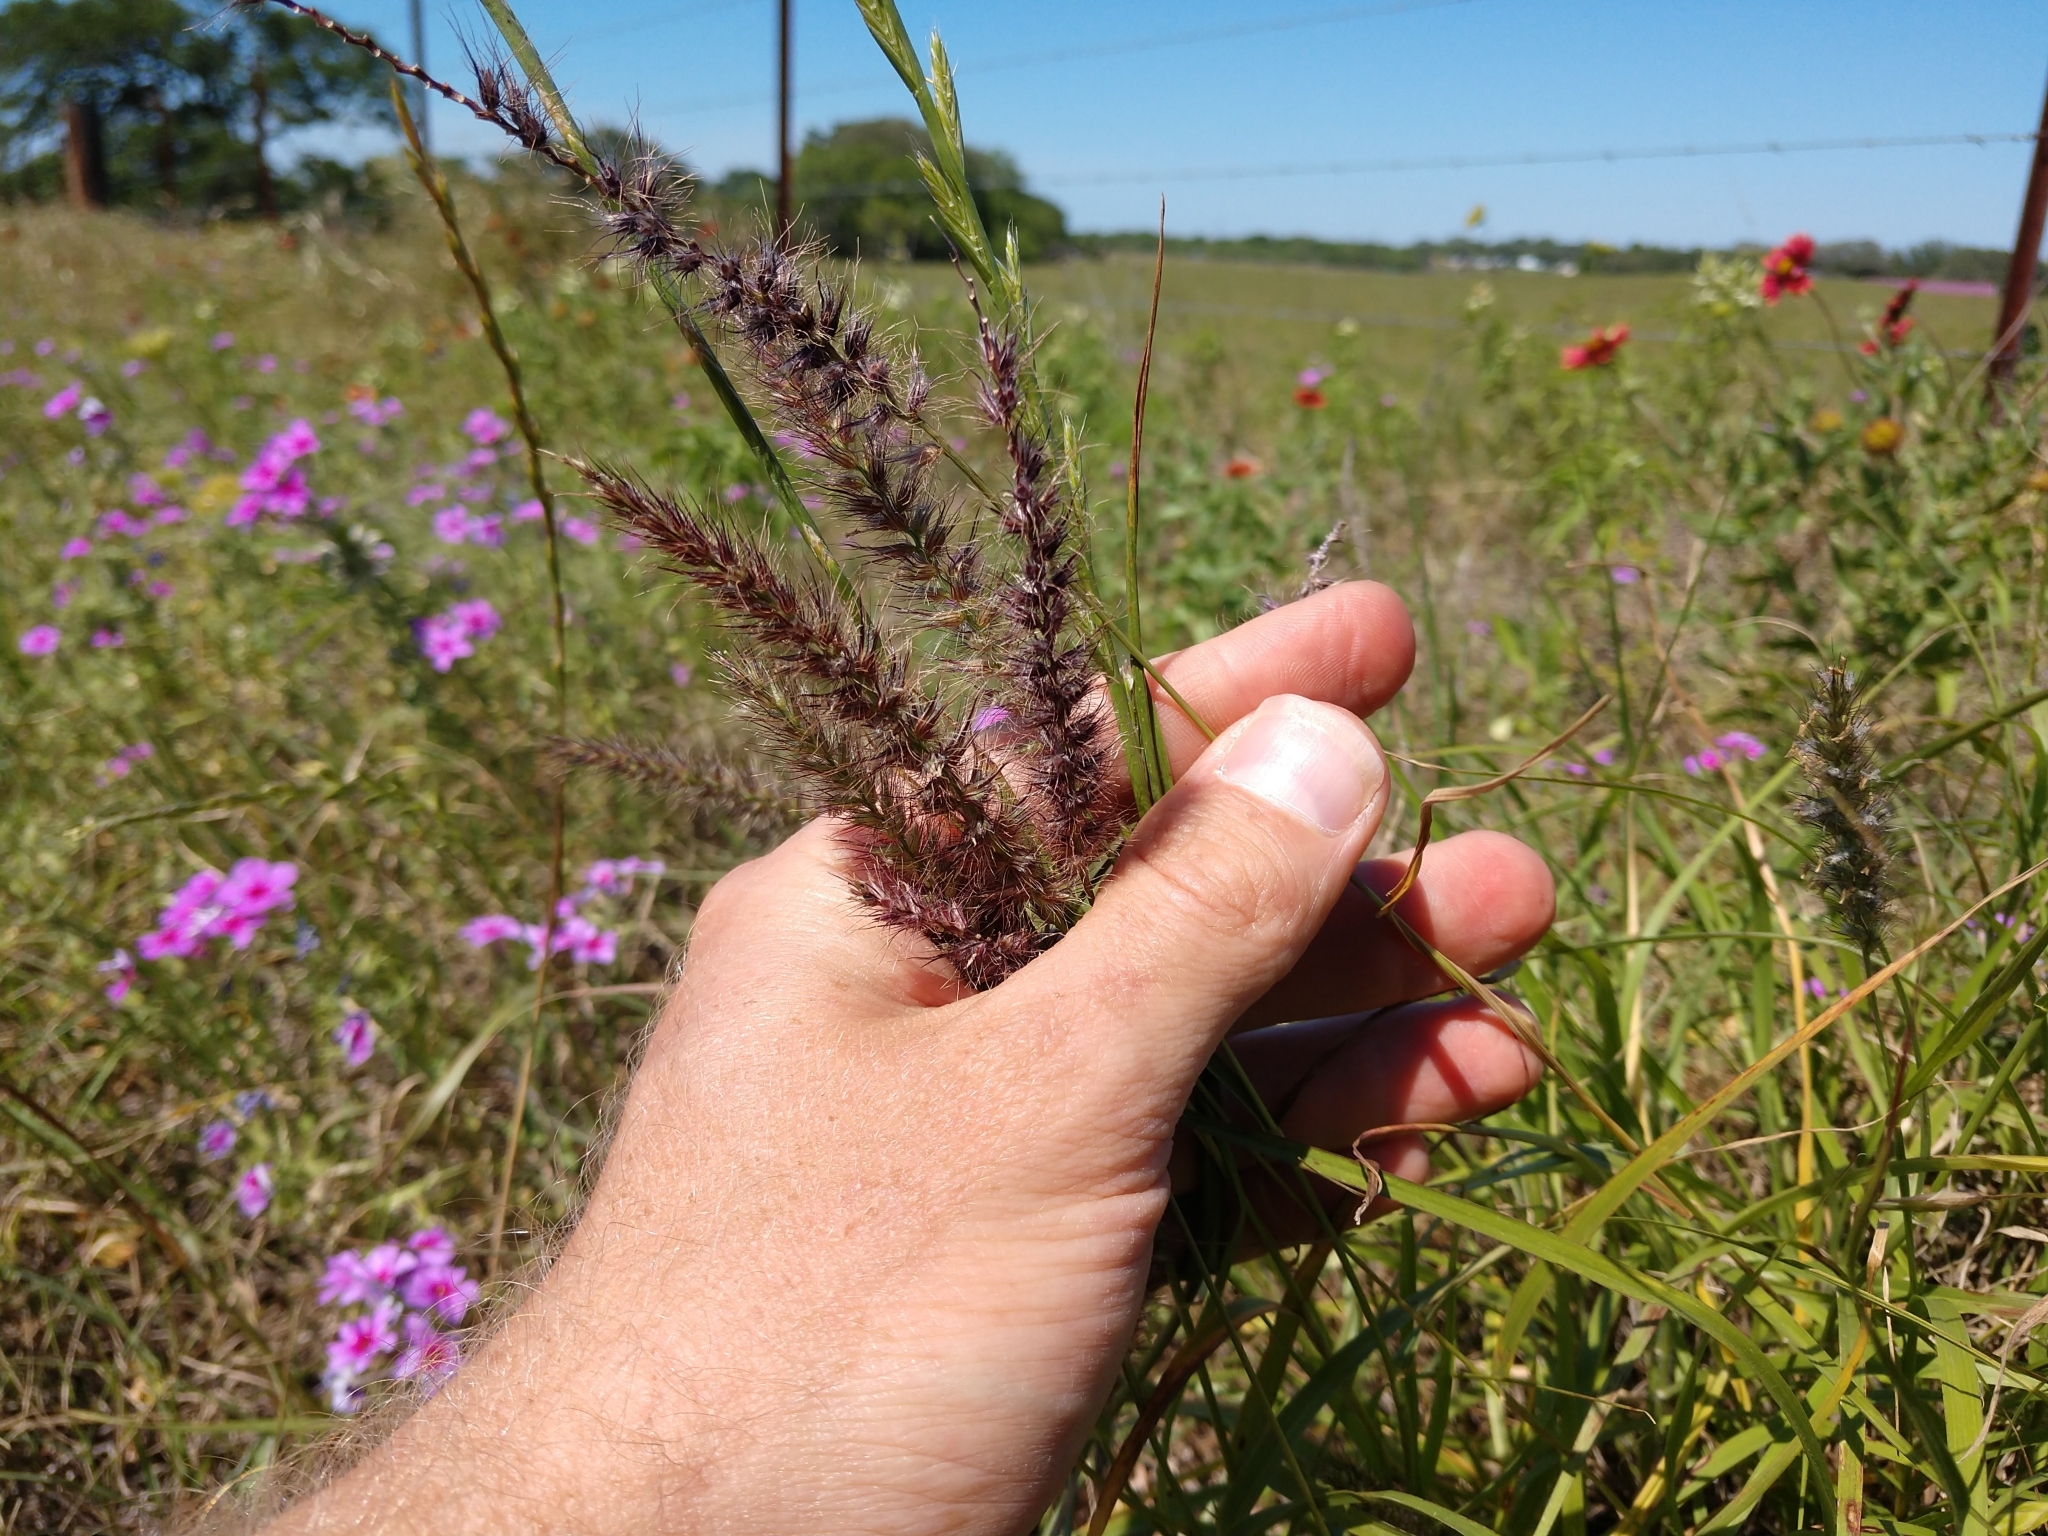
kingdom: Plantae
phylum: Tracheophyta
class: Liliopsida
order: Poales
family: Poaceae
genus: Cenchrus
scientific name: Cenchrus ciliaris
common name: Buffelgrass
